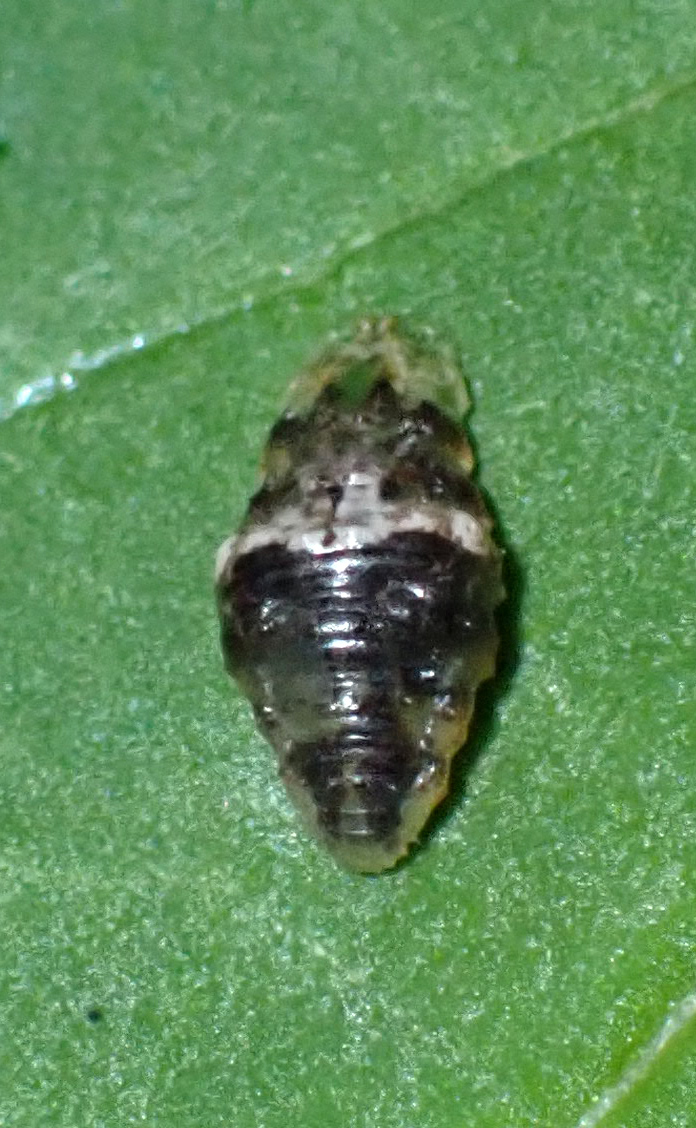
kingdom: Animalia
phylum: Arthropoda
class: Insecta
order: Diptera
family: Syrphidae
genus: Ocyptamus
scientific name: Ocyptamus fuscipennis
